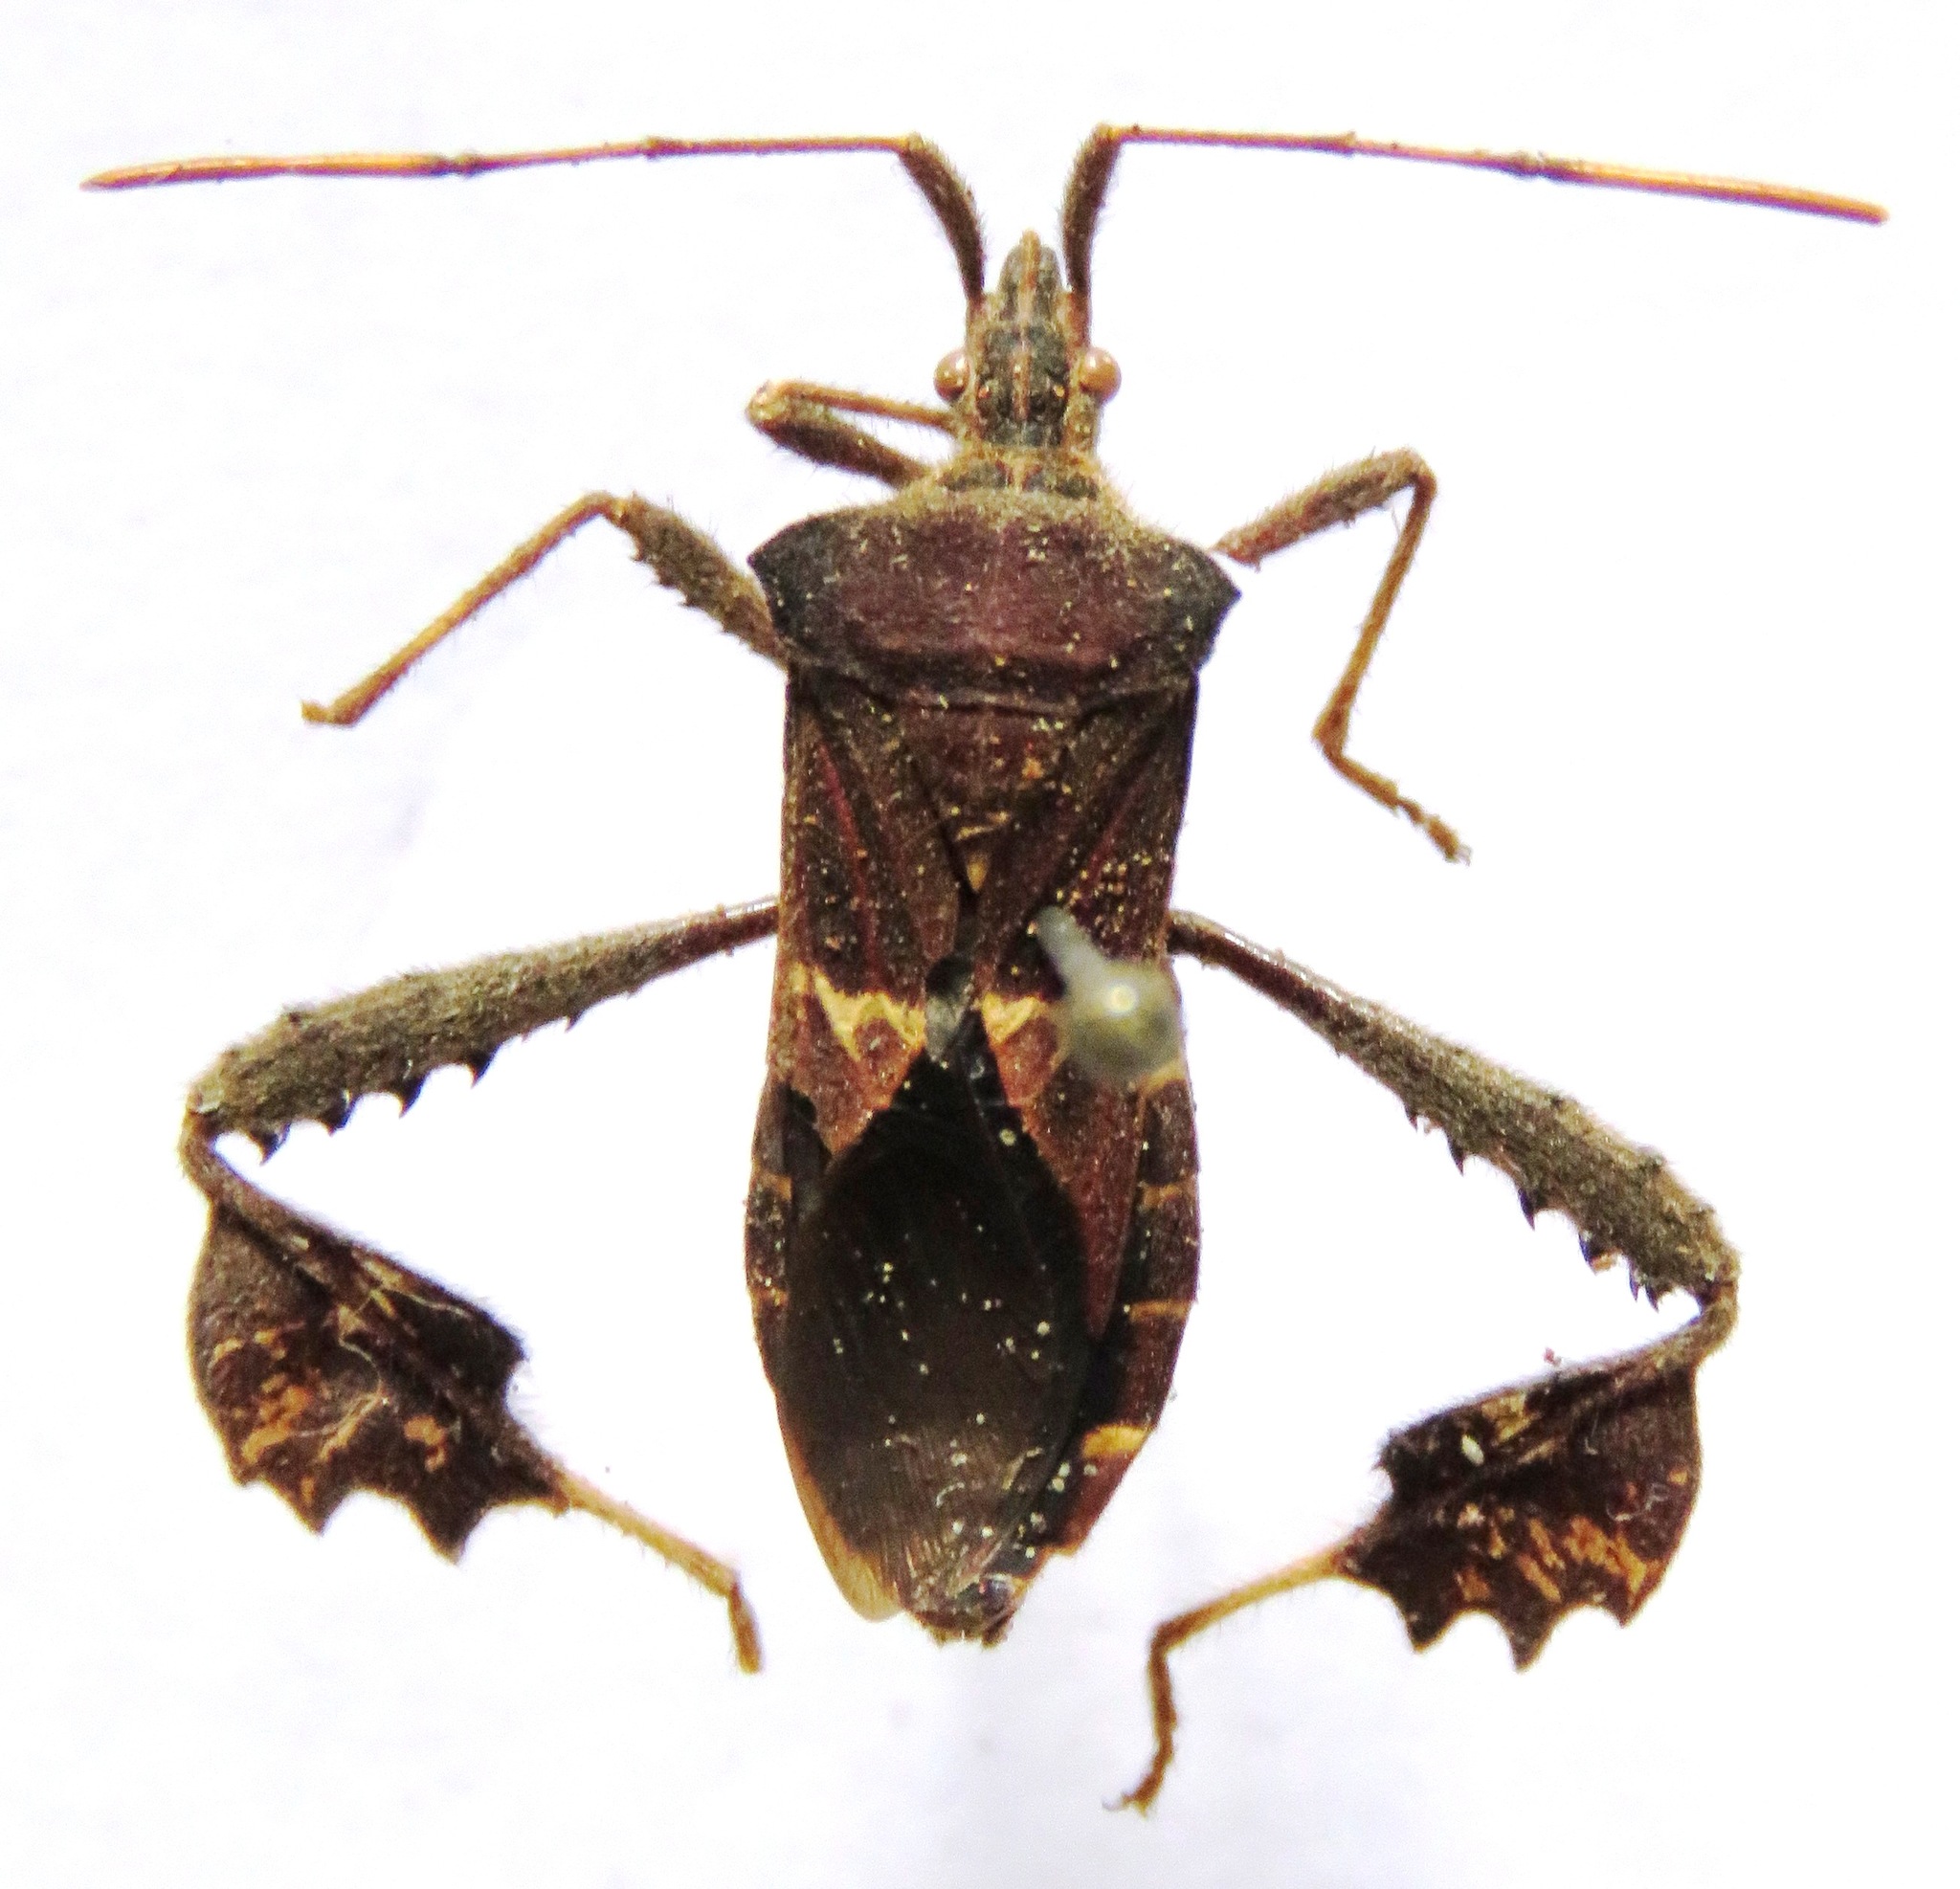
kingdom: Animalia
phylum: Arthropoda
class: Insecta
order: Hemiptera
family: Coreidae
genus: Leptoglossus
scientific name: Leptoglossus brevirostris
